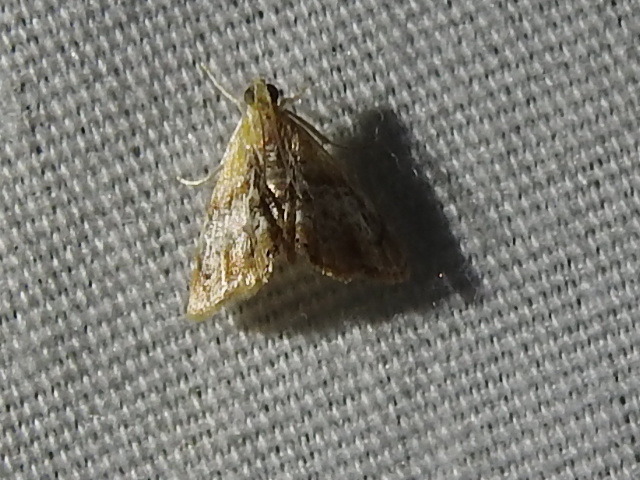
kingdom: Animalia
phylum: Arthropoda
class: Insecta
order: Lepidoptera
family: Crambidae
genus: Dicymolomia
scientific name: Dicymolomia julianalis
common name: Julia's dicymolomia moth
